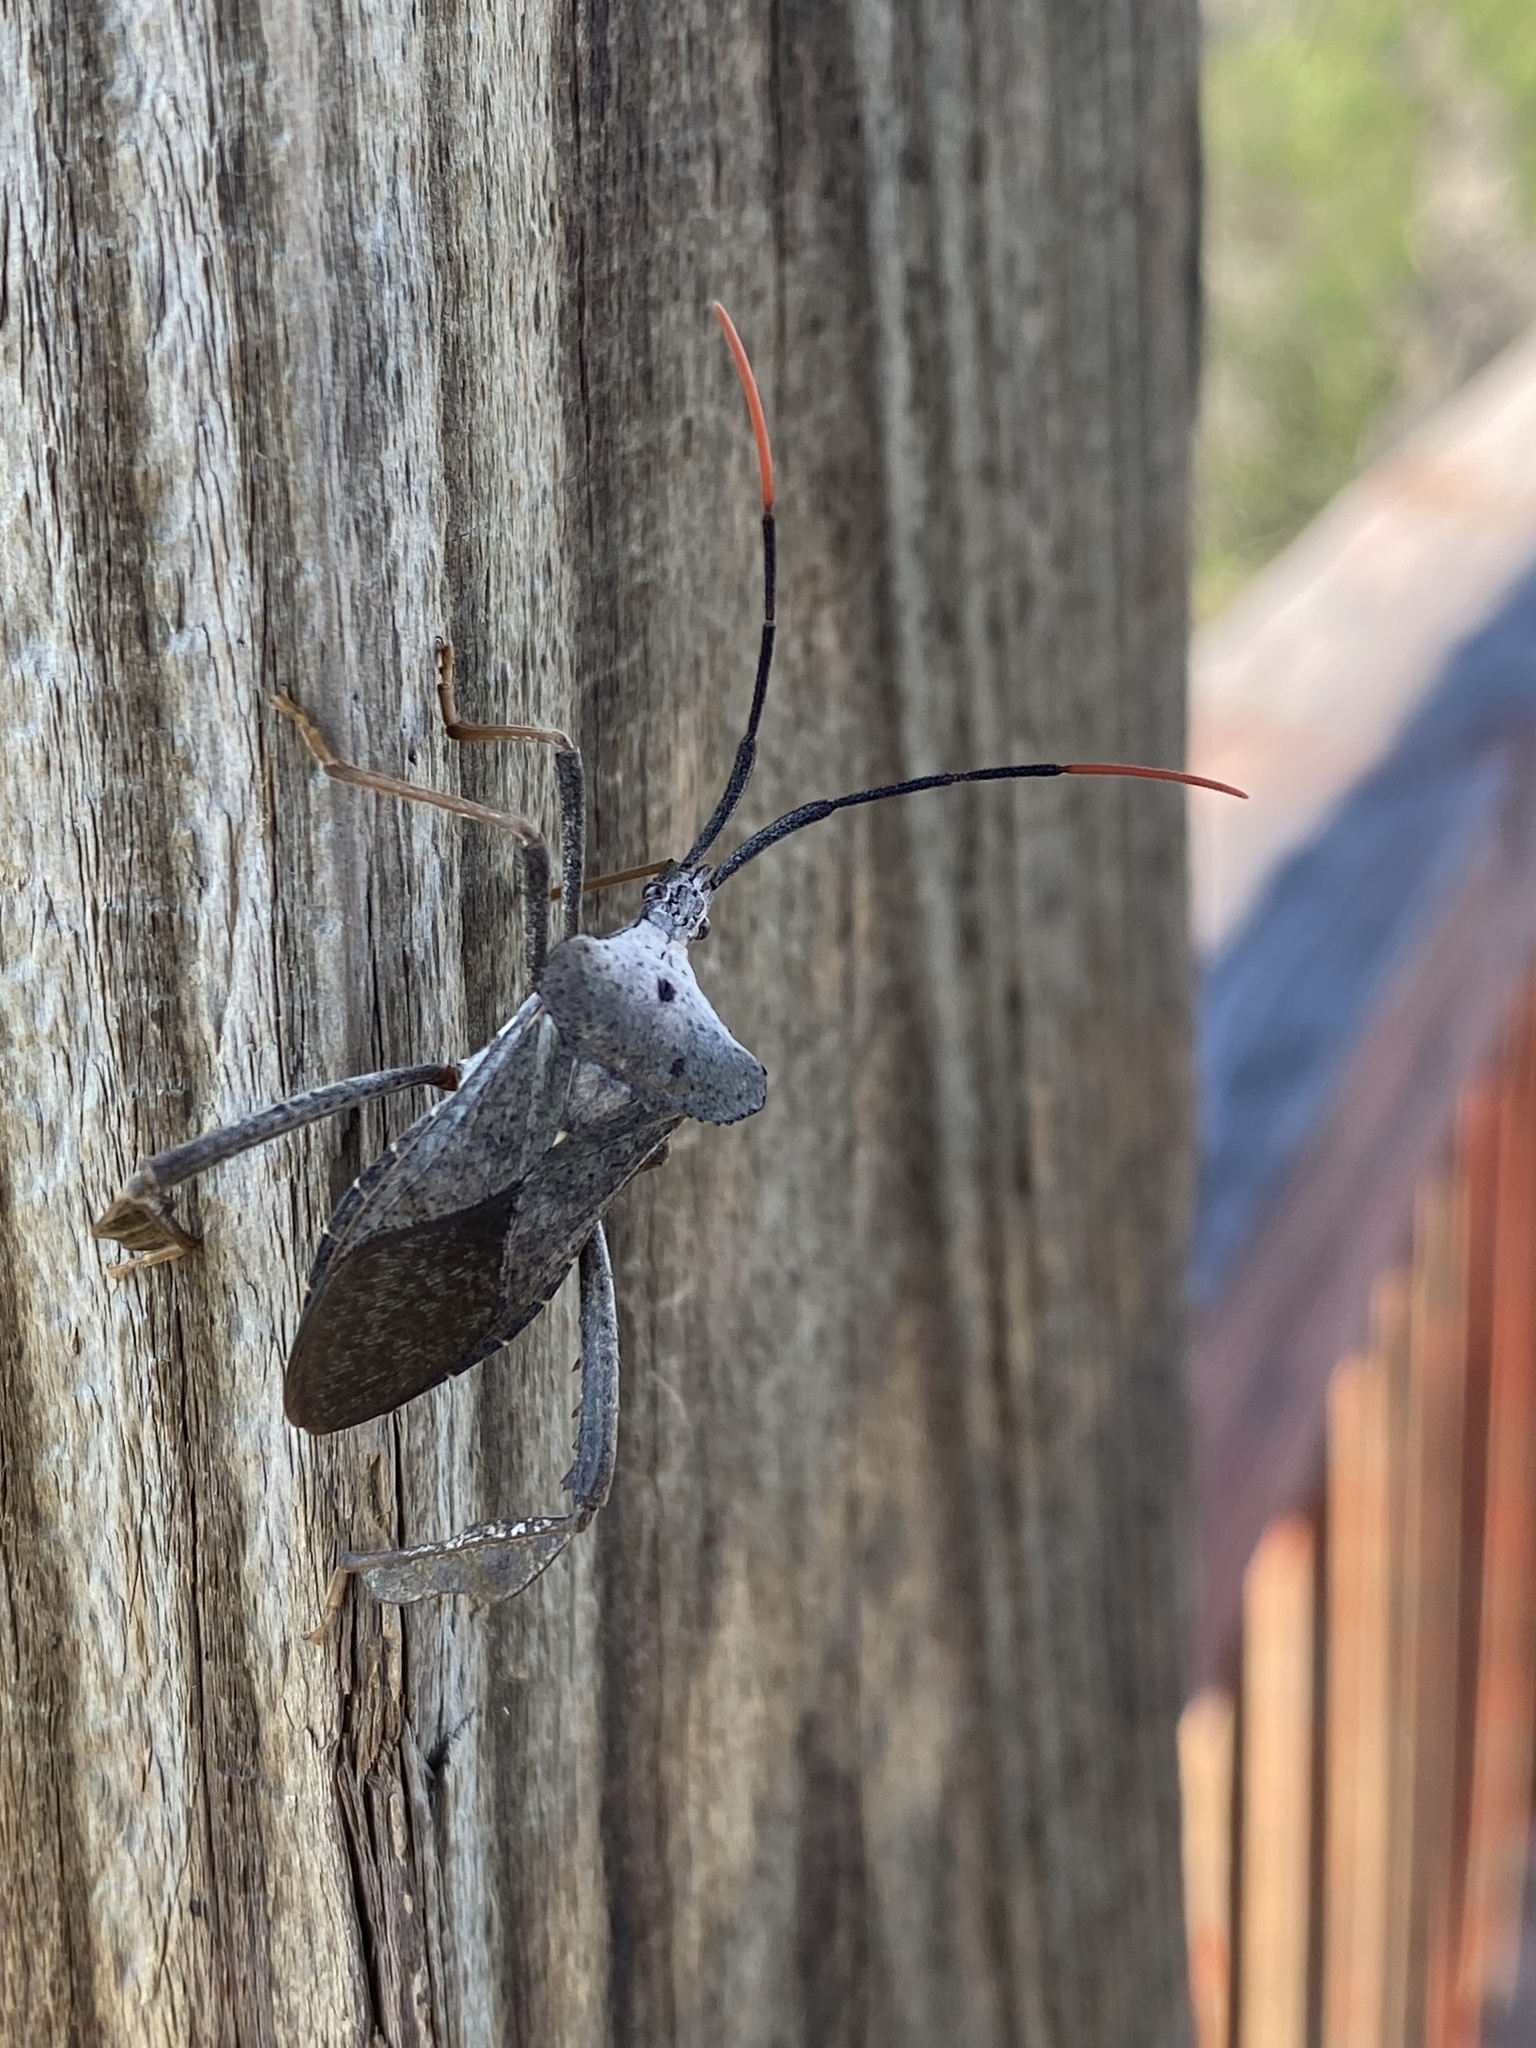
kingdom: Animalia
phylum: Arthropoda
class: Insecta
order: Hemiptera
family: Coreidae
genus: Acanthocephala
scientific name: Acanthocephala alata
